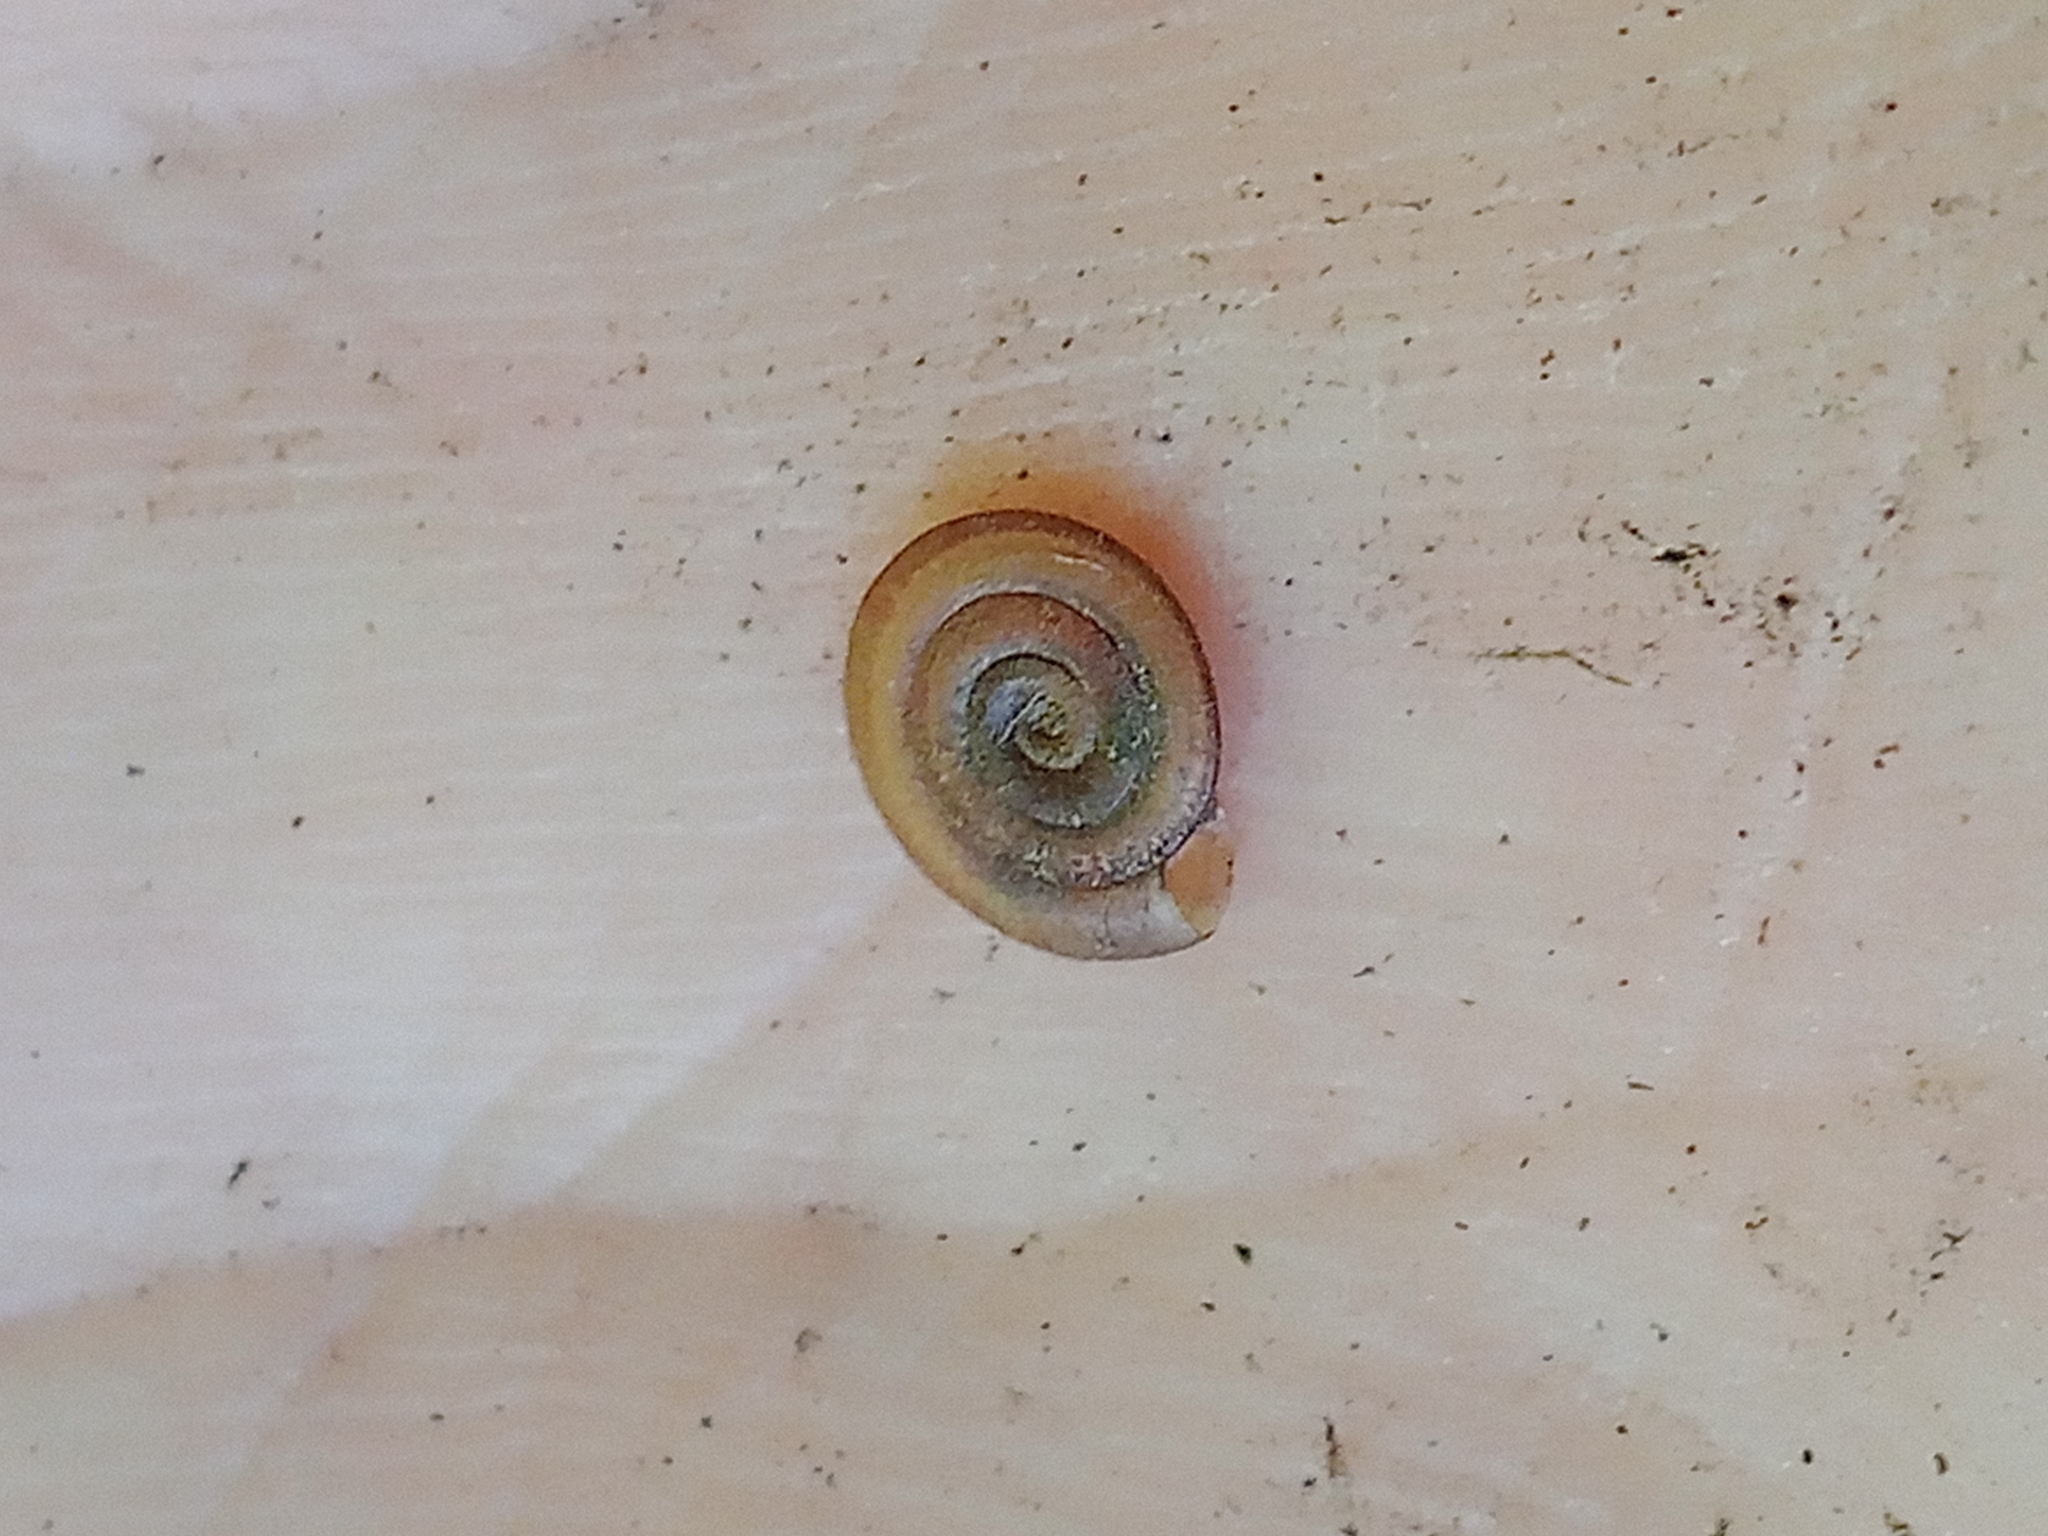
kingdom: Animalia
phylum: Mollusca
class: Gastropoda
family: Planorbidae
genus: Anisus
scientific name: Anisus vortex
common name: Whirlpool ram's horn snail
